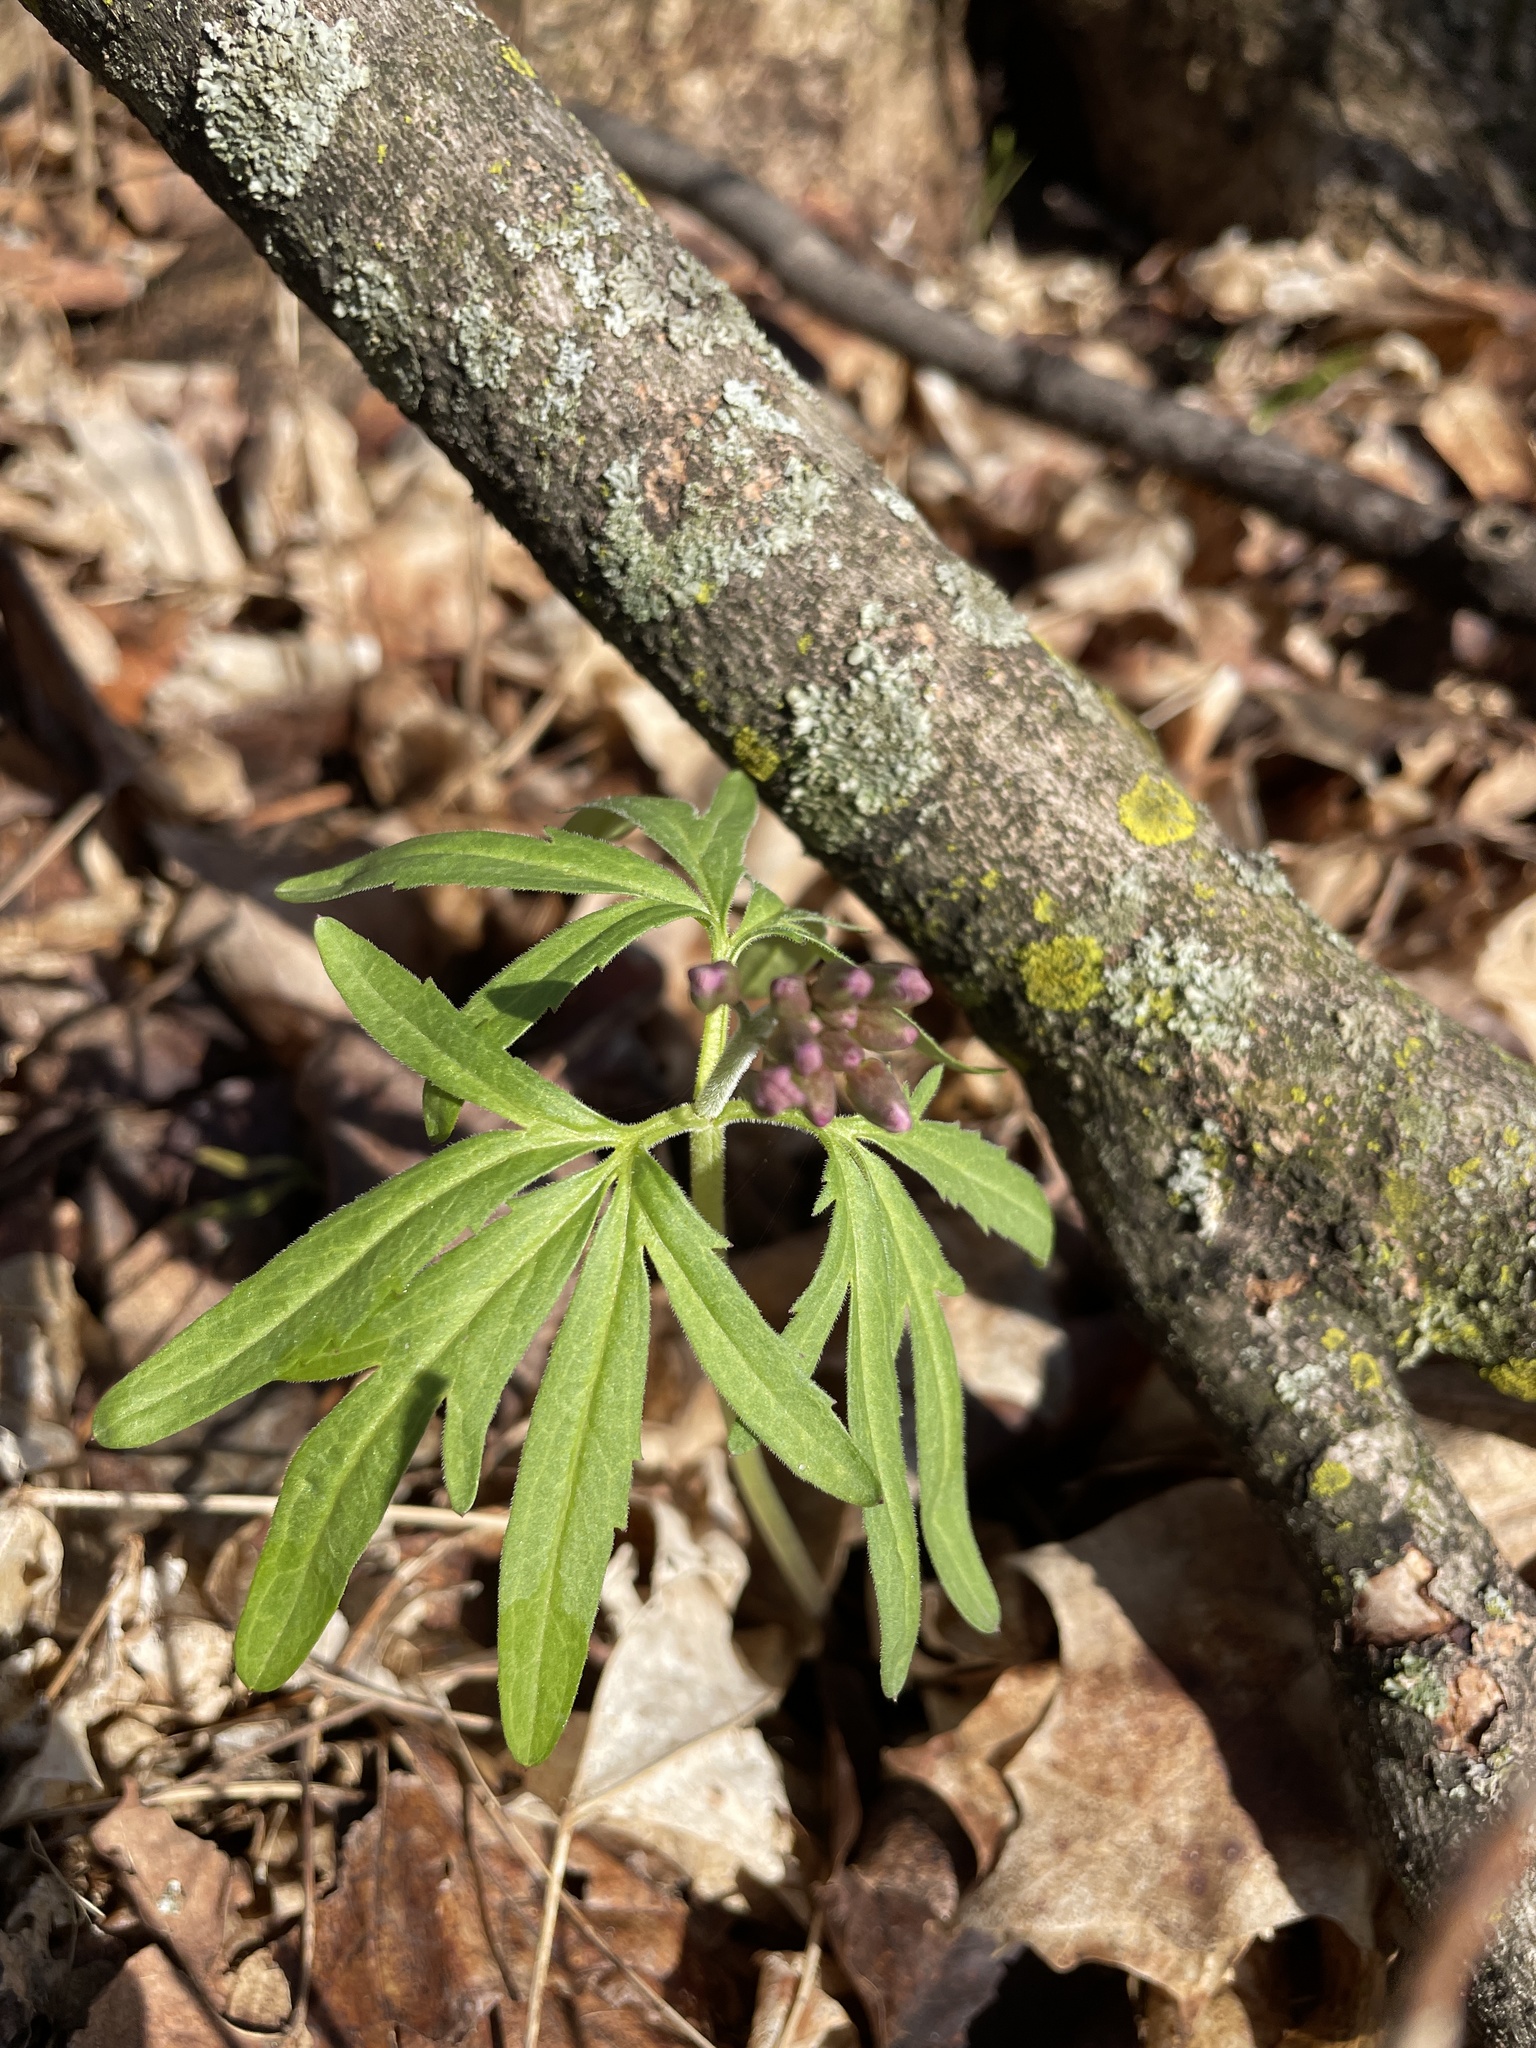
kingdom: Plantae
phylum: Tracheophyta
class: Magnoliopsida
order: Brassicales
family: Brassicaceae
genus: Cardamine
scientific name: Cardamine concatenata
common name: Cut-leaf toothcup
